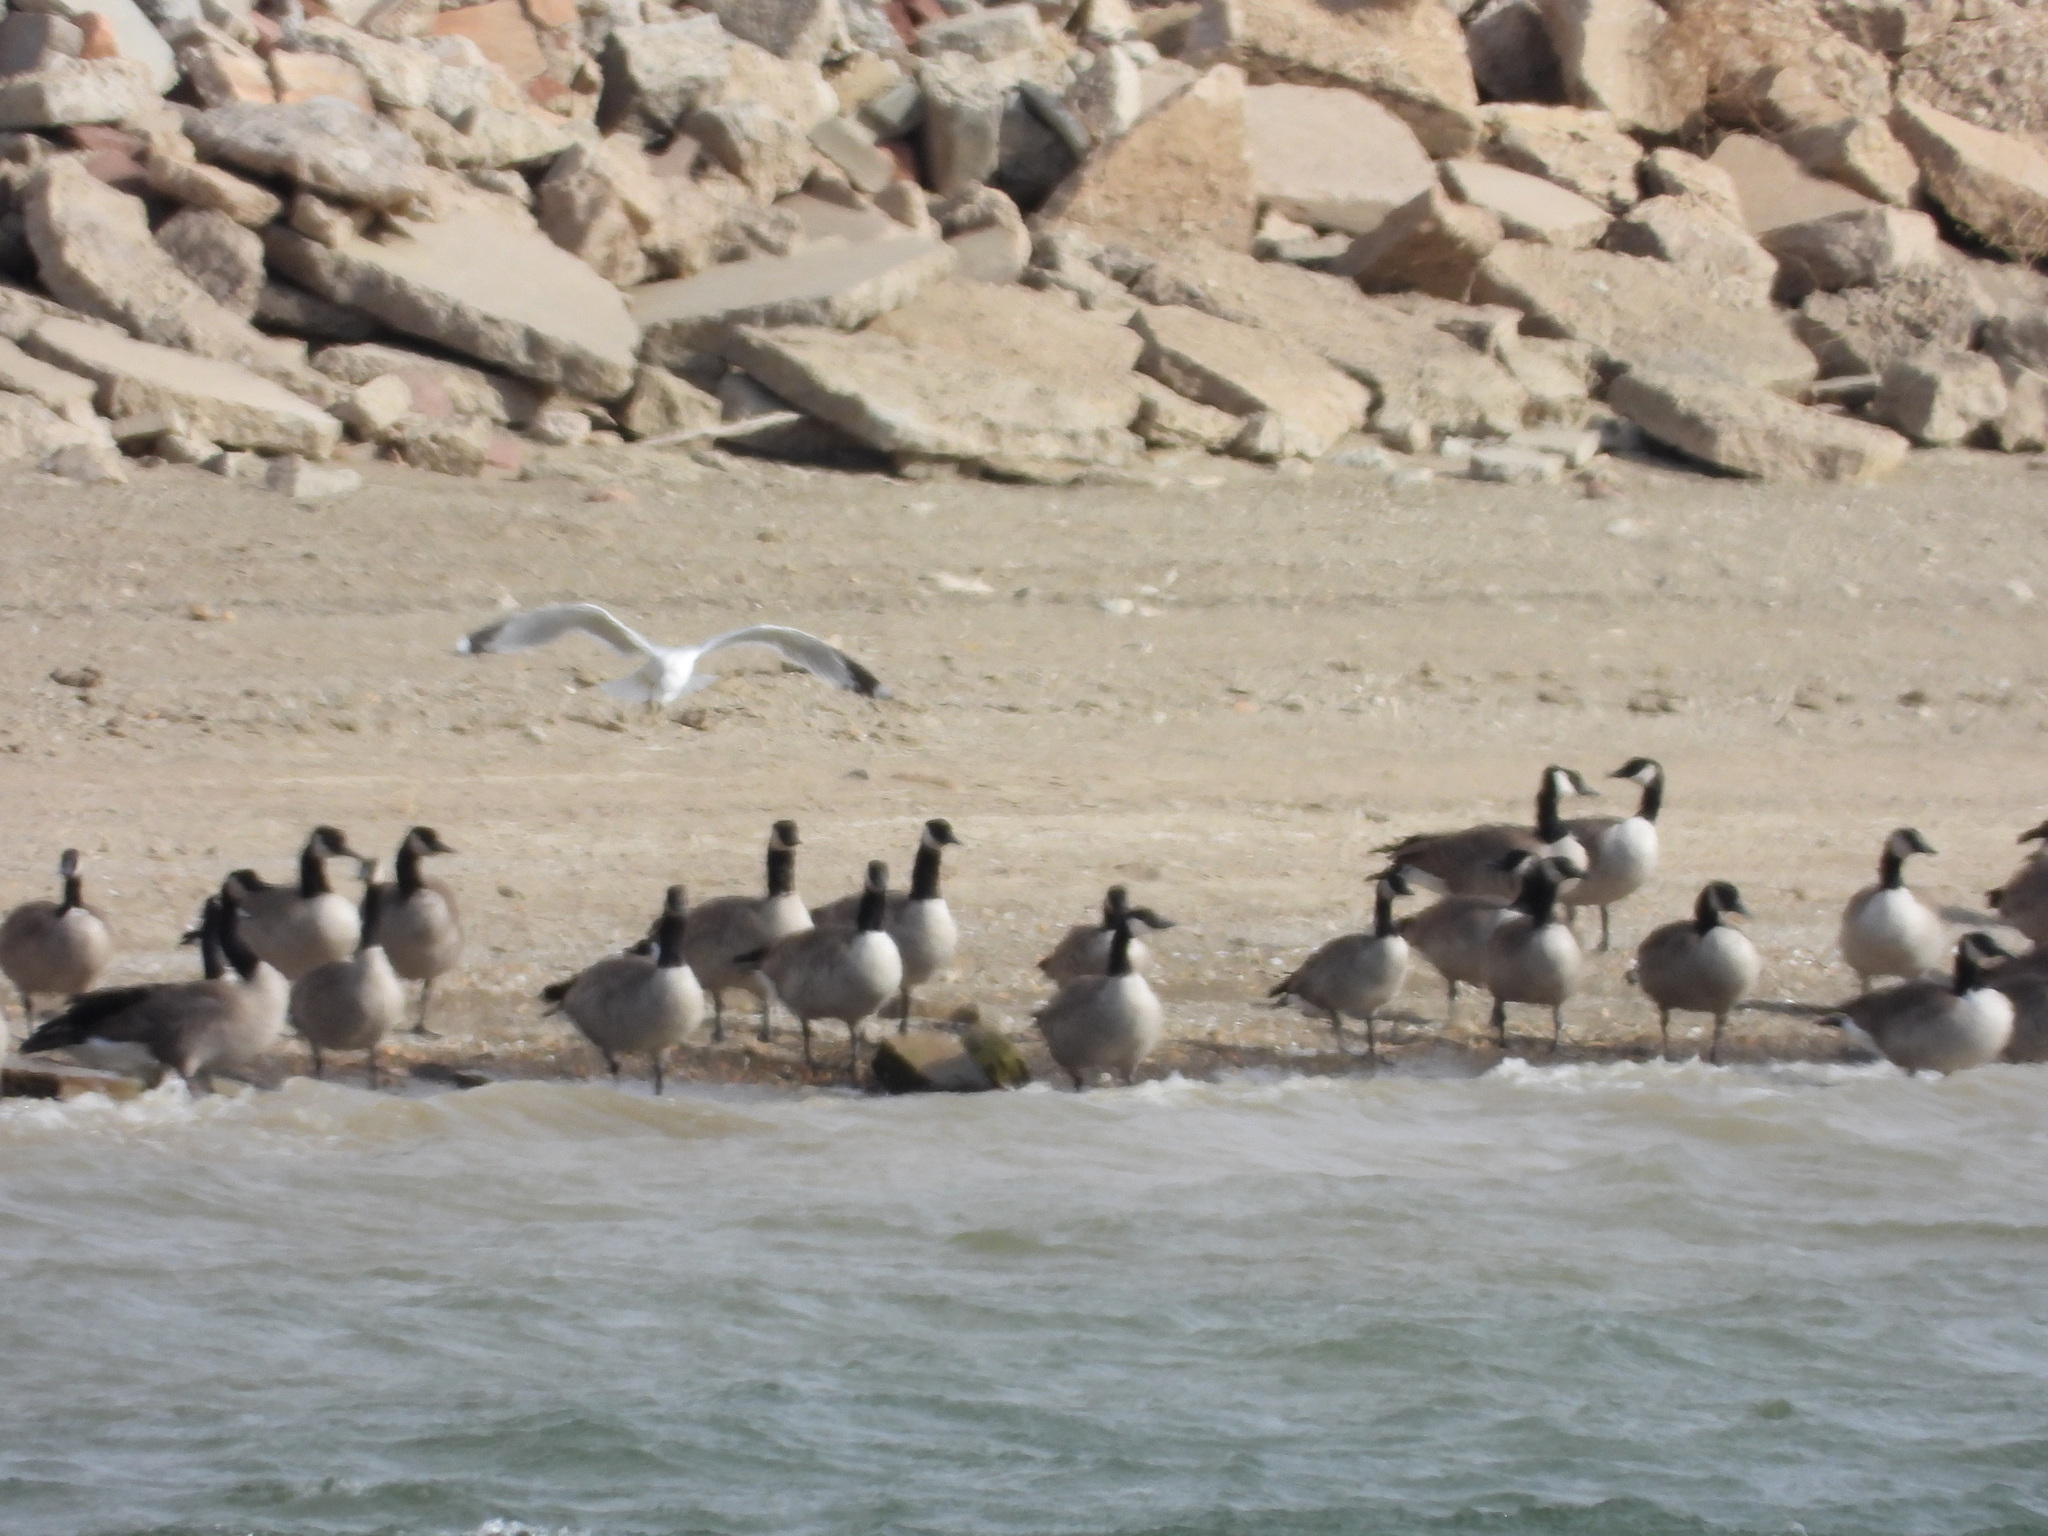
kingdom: Animalia
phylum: Chordata
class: Aves
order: Anseriformes
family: Anatidae
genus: Branta
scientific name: Branta canadensis
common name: Canada goose
